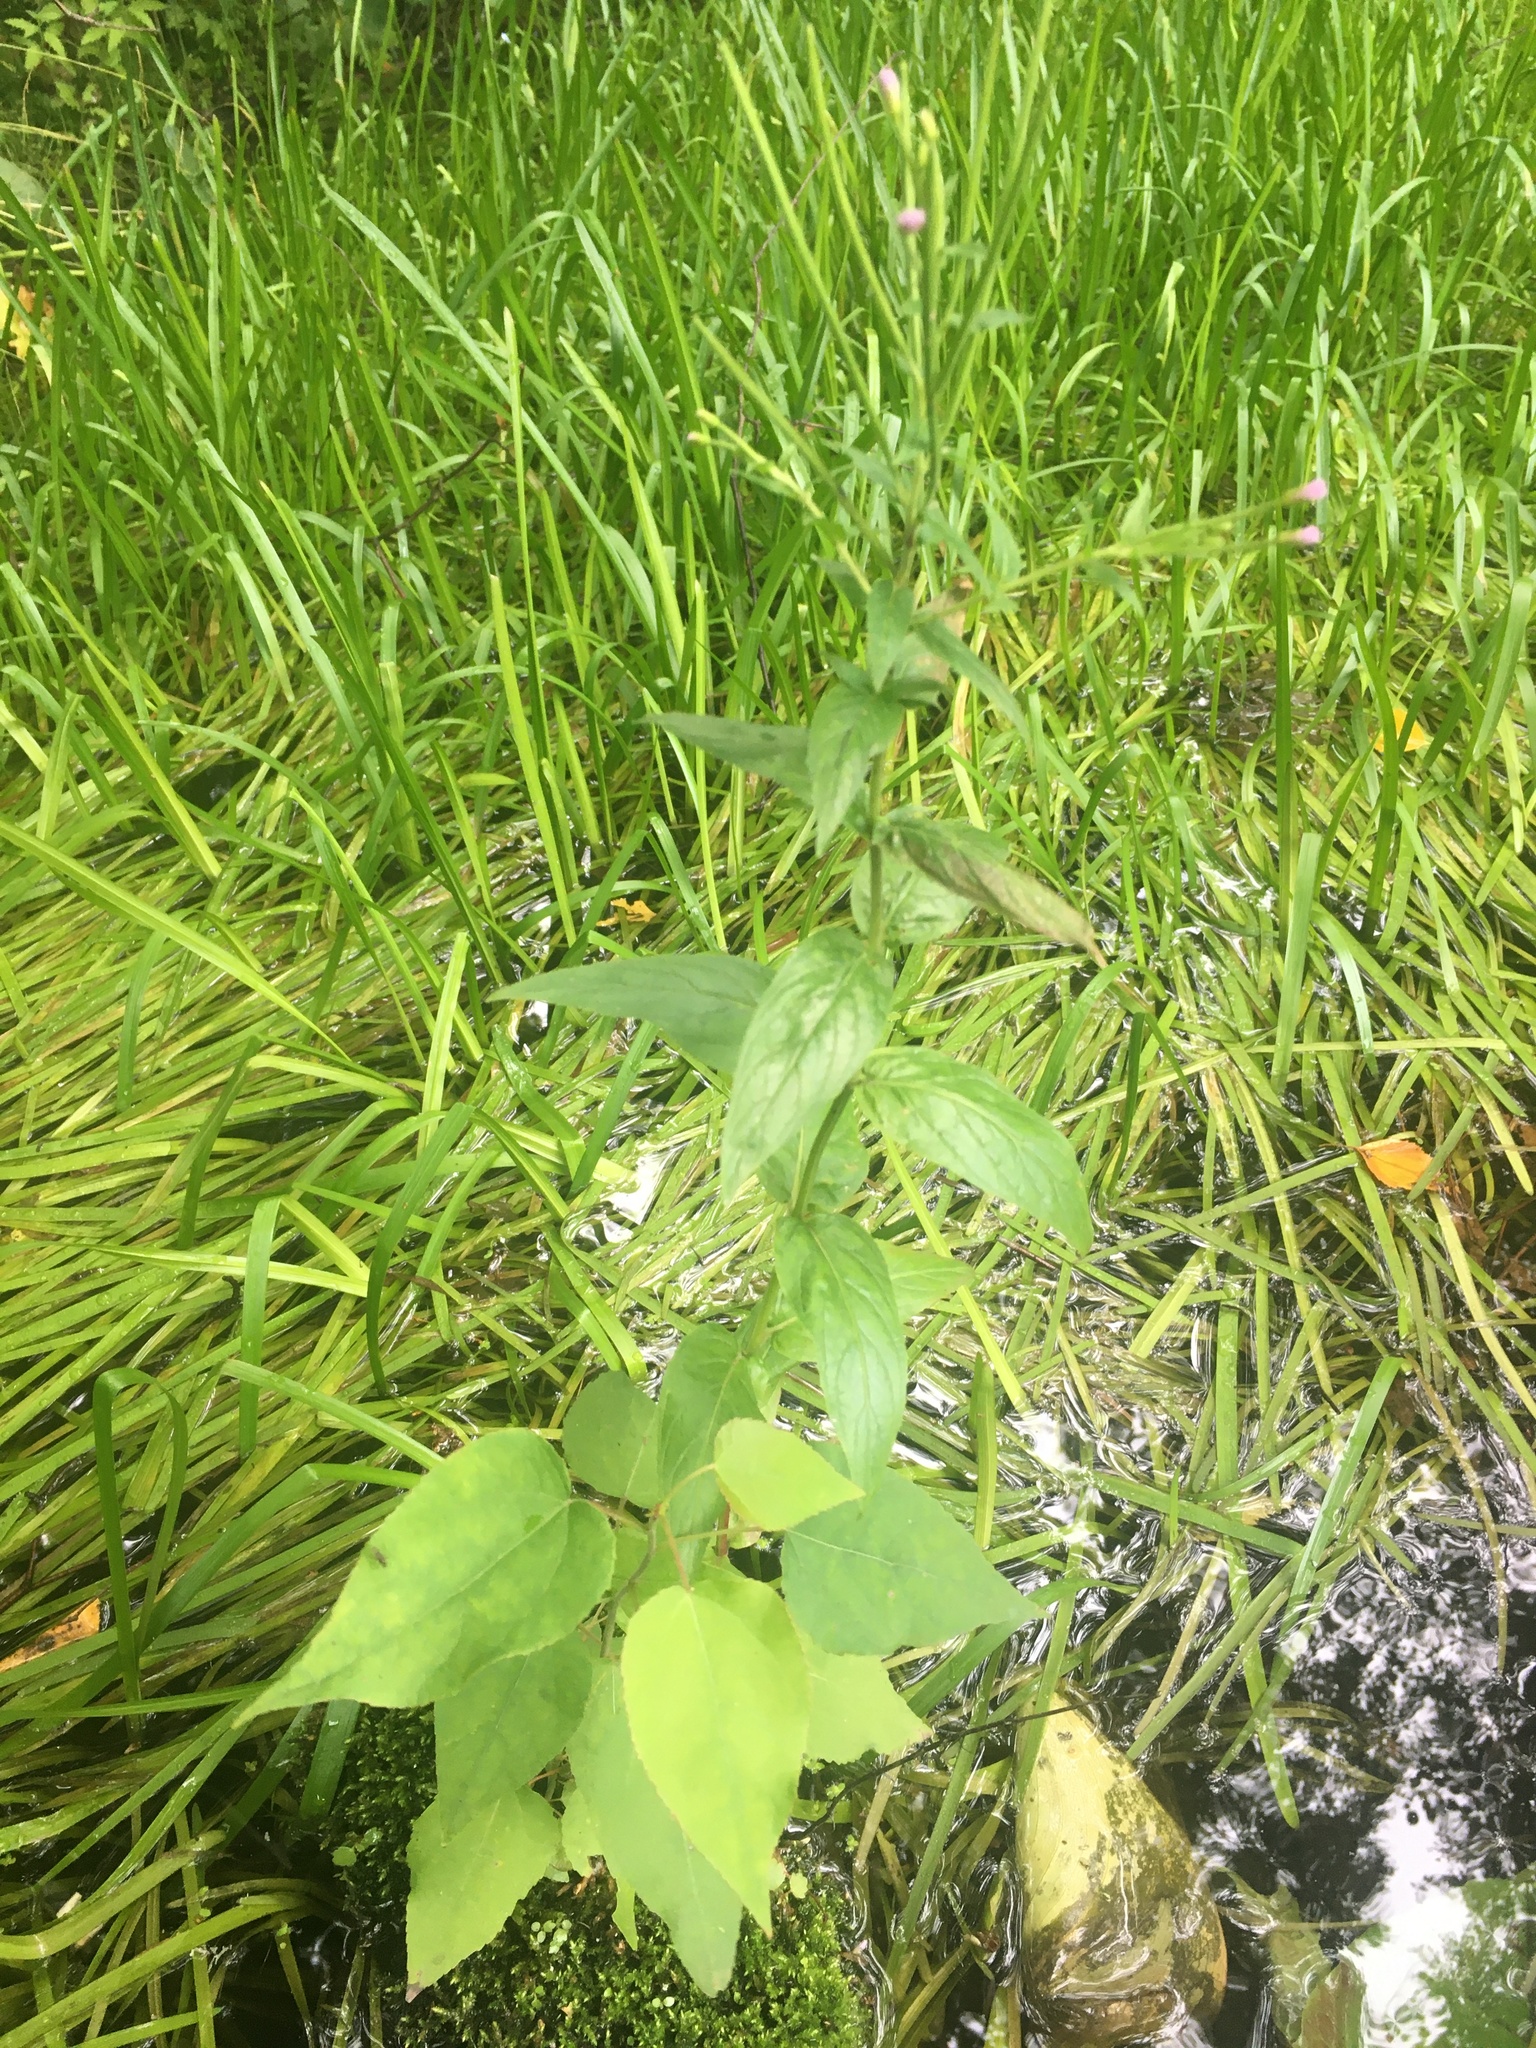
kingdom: Plantae
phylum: Tracheophyta
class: Magnoliopsida
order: Myrtales
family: Onagraceae
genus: Epilobium
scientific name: Epilobium ciliatum
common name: American willowherb
